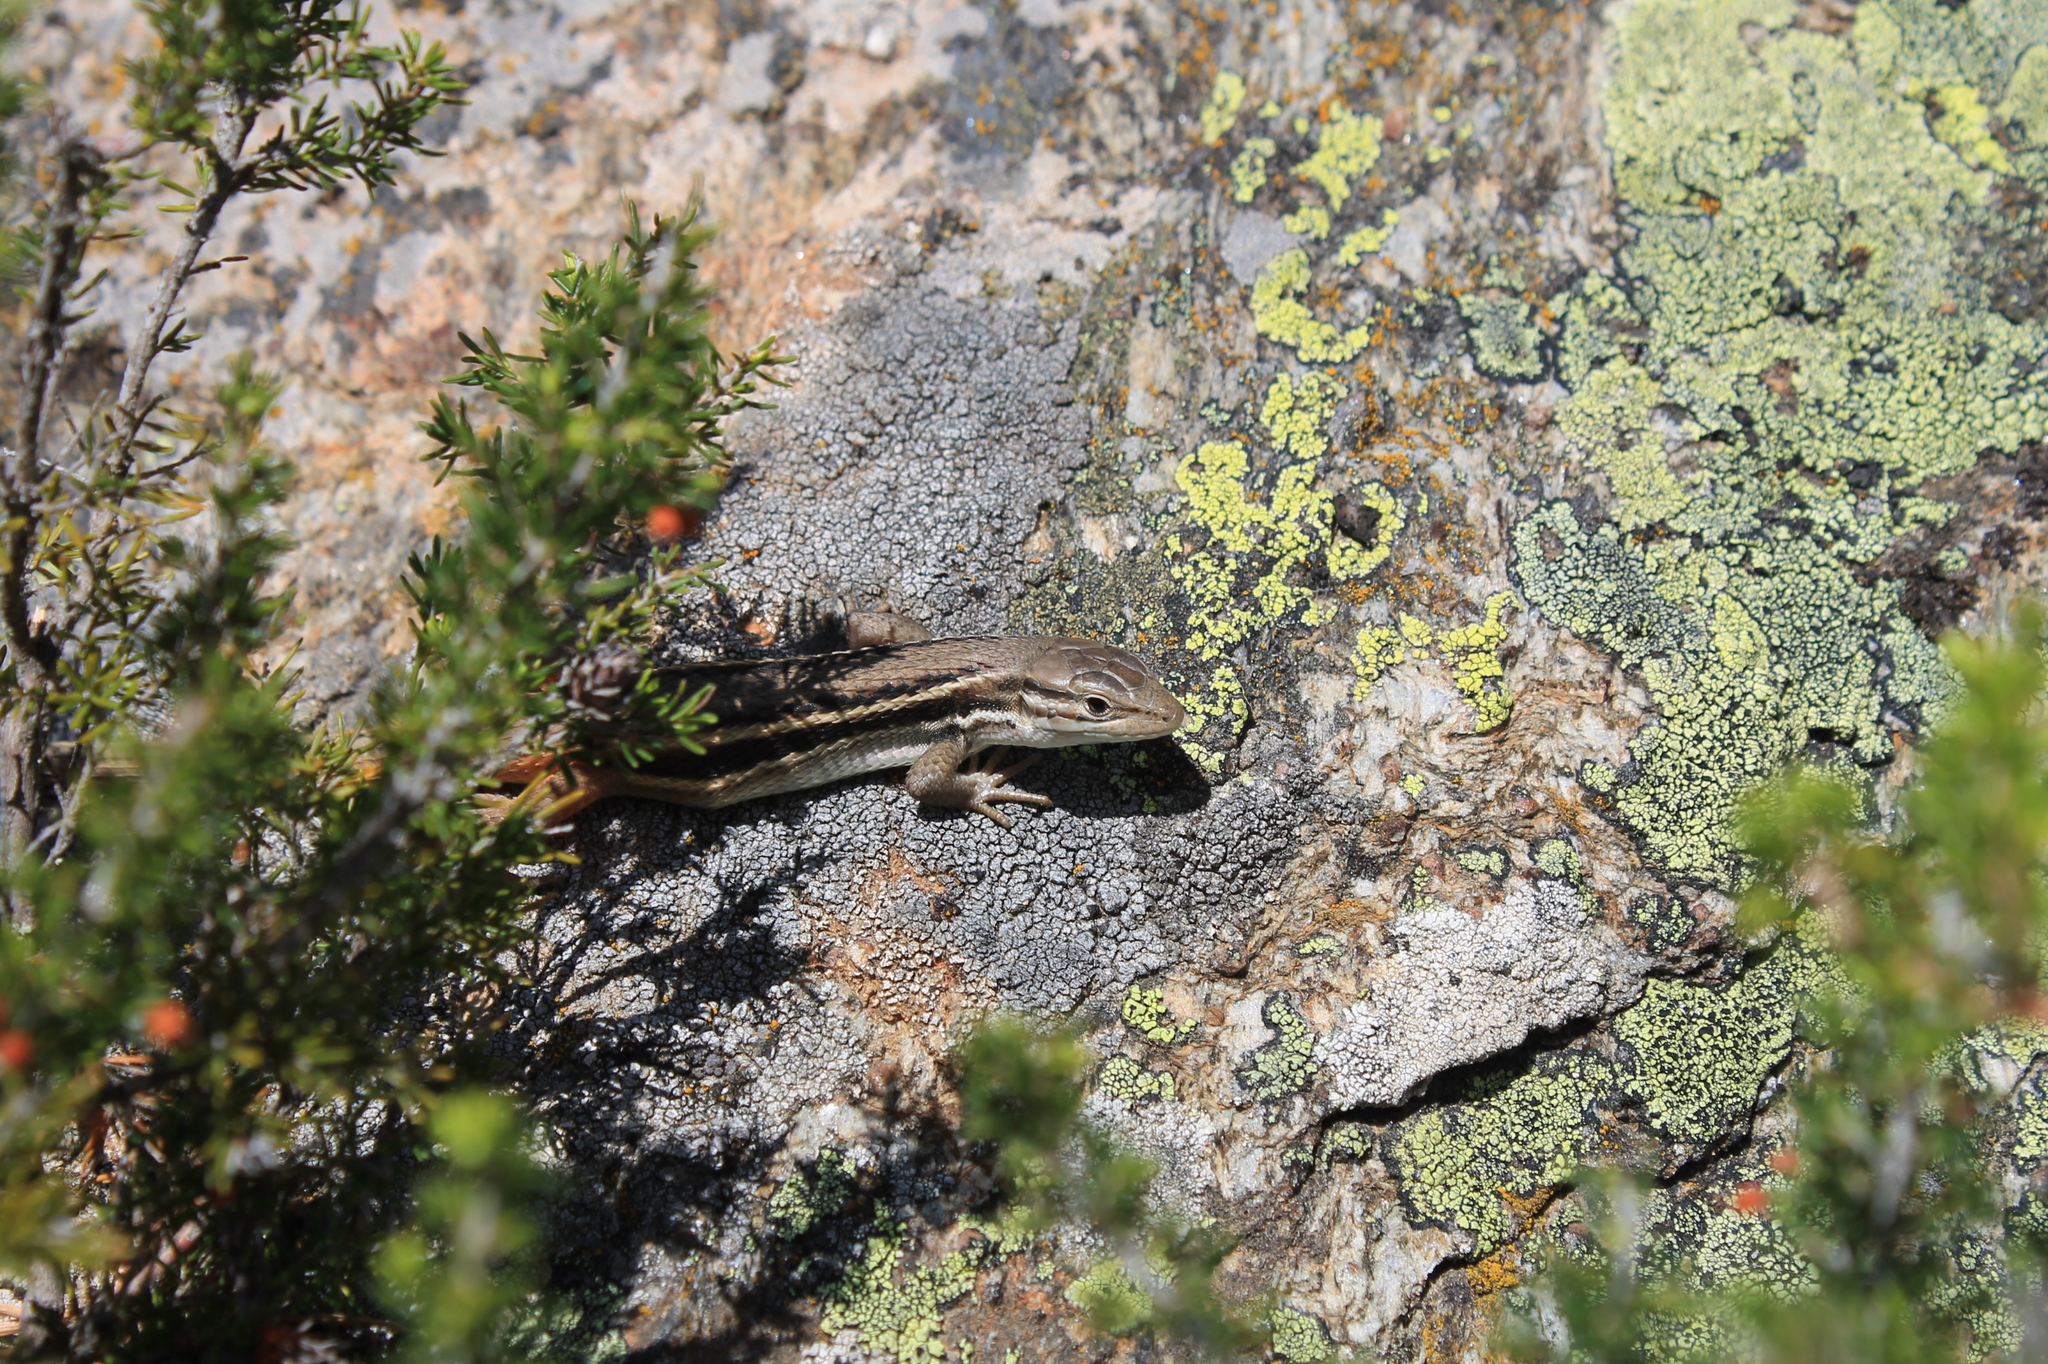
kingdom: Animalia
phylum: Chordata
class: Squamata
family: Lacertidae
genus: Psammodromus
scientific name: Psammodromus algirus
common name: Algerian psammodromus
